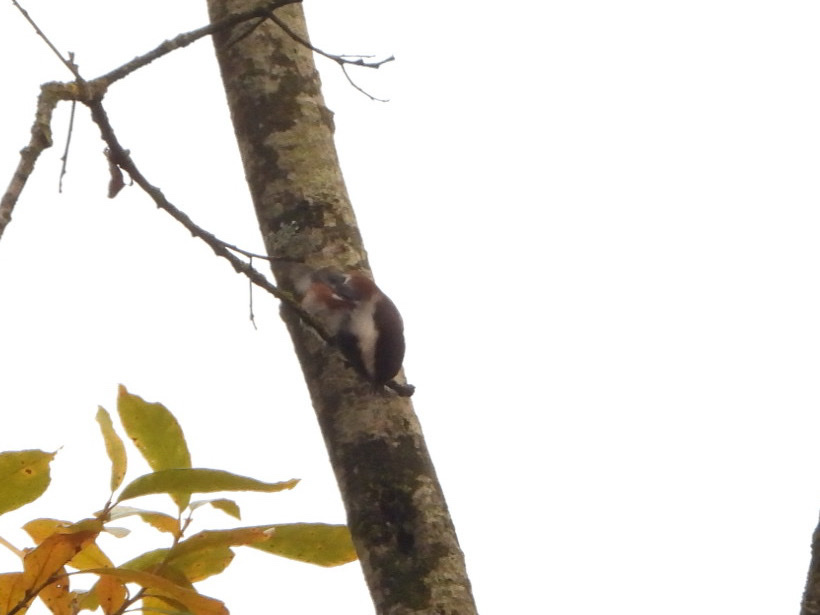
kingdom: Animalia
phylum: Chordata
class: Aves
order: Passeriformes
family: Paridae
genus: Poecile
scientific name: Poecile rufescens
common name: Chestnut-backed chickadee
